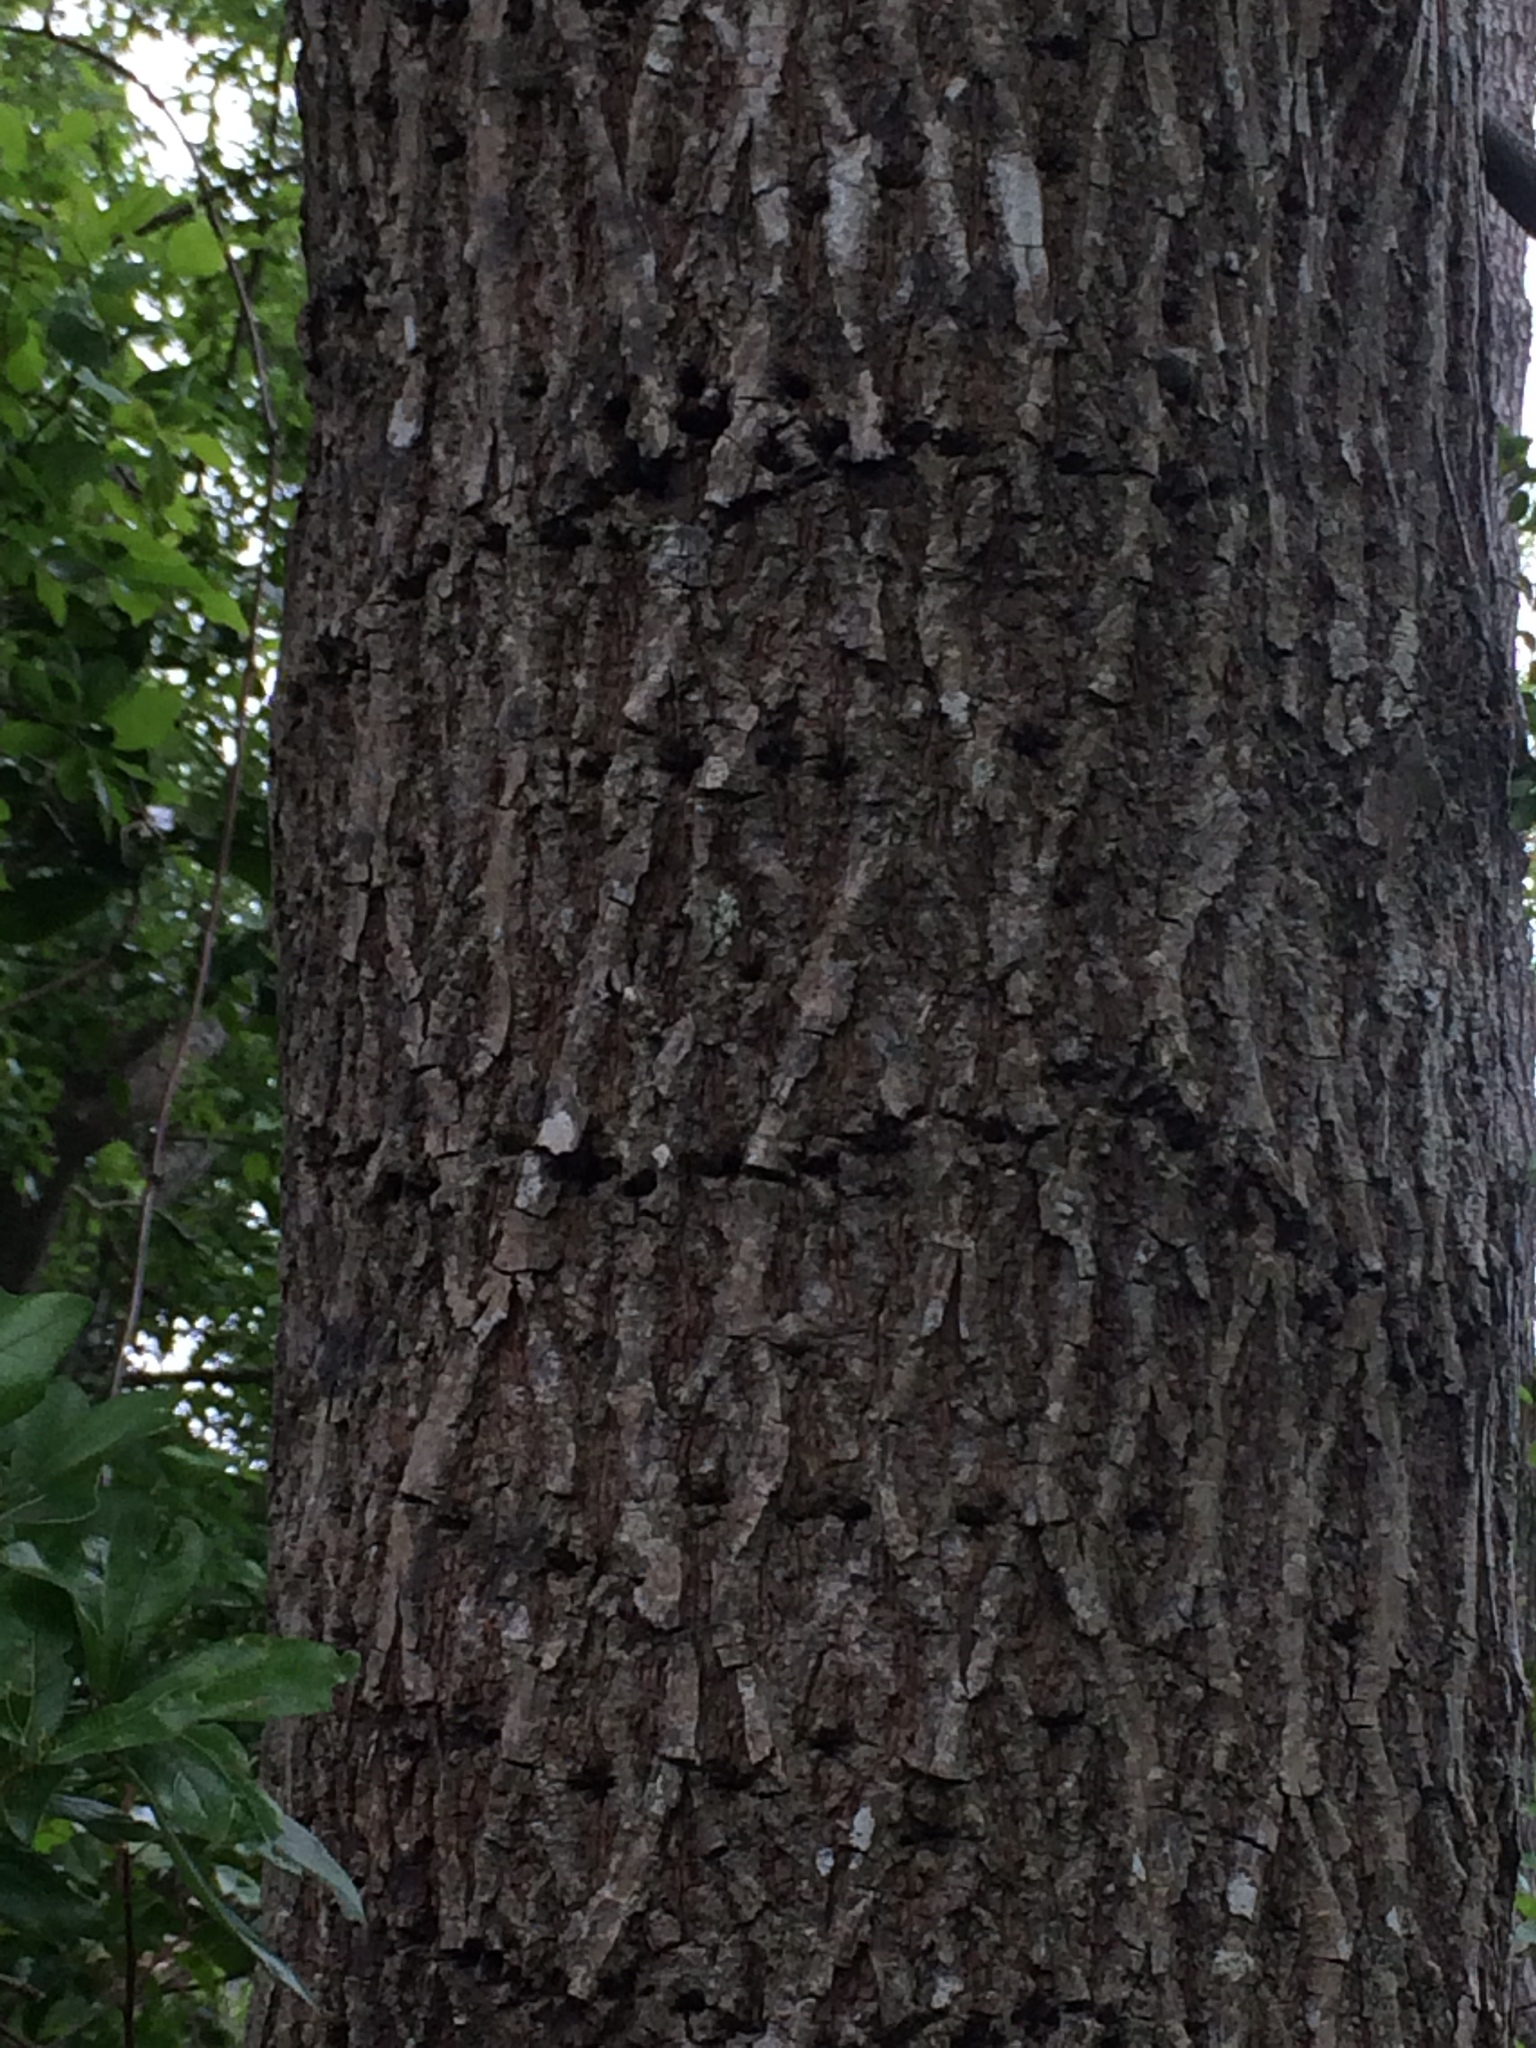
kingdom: Animalia
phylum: Chordata
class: Aves
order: Piciformes
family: Picidae
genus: Sphyrapicus
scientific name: Sphyrapicus varius
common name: Yellow-bellied sapsucker
